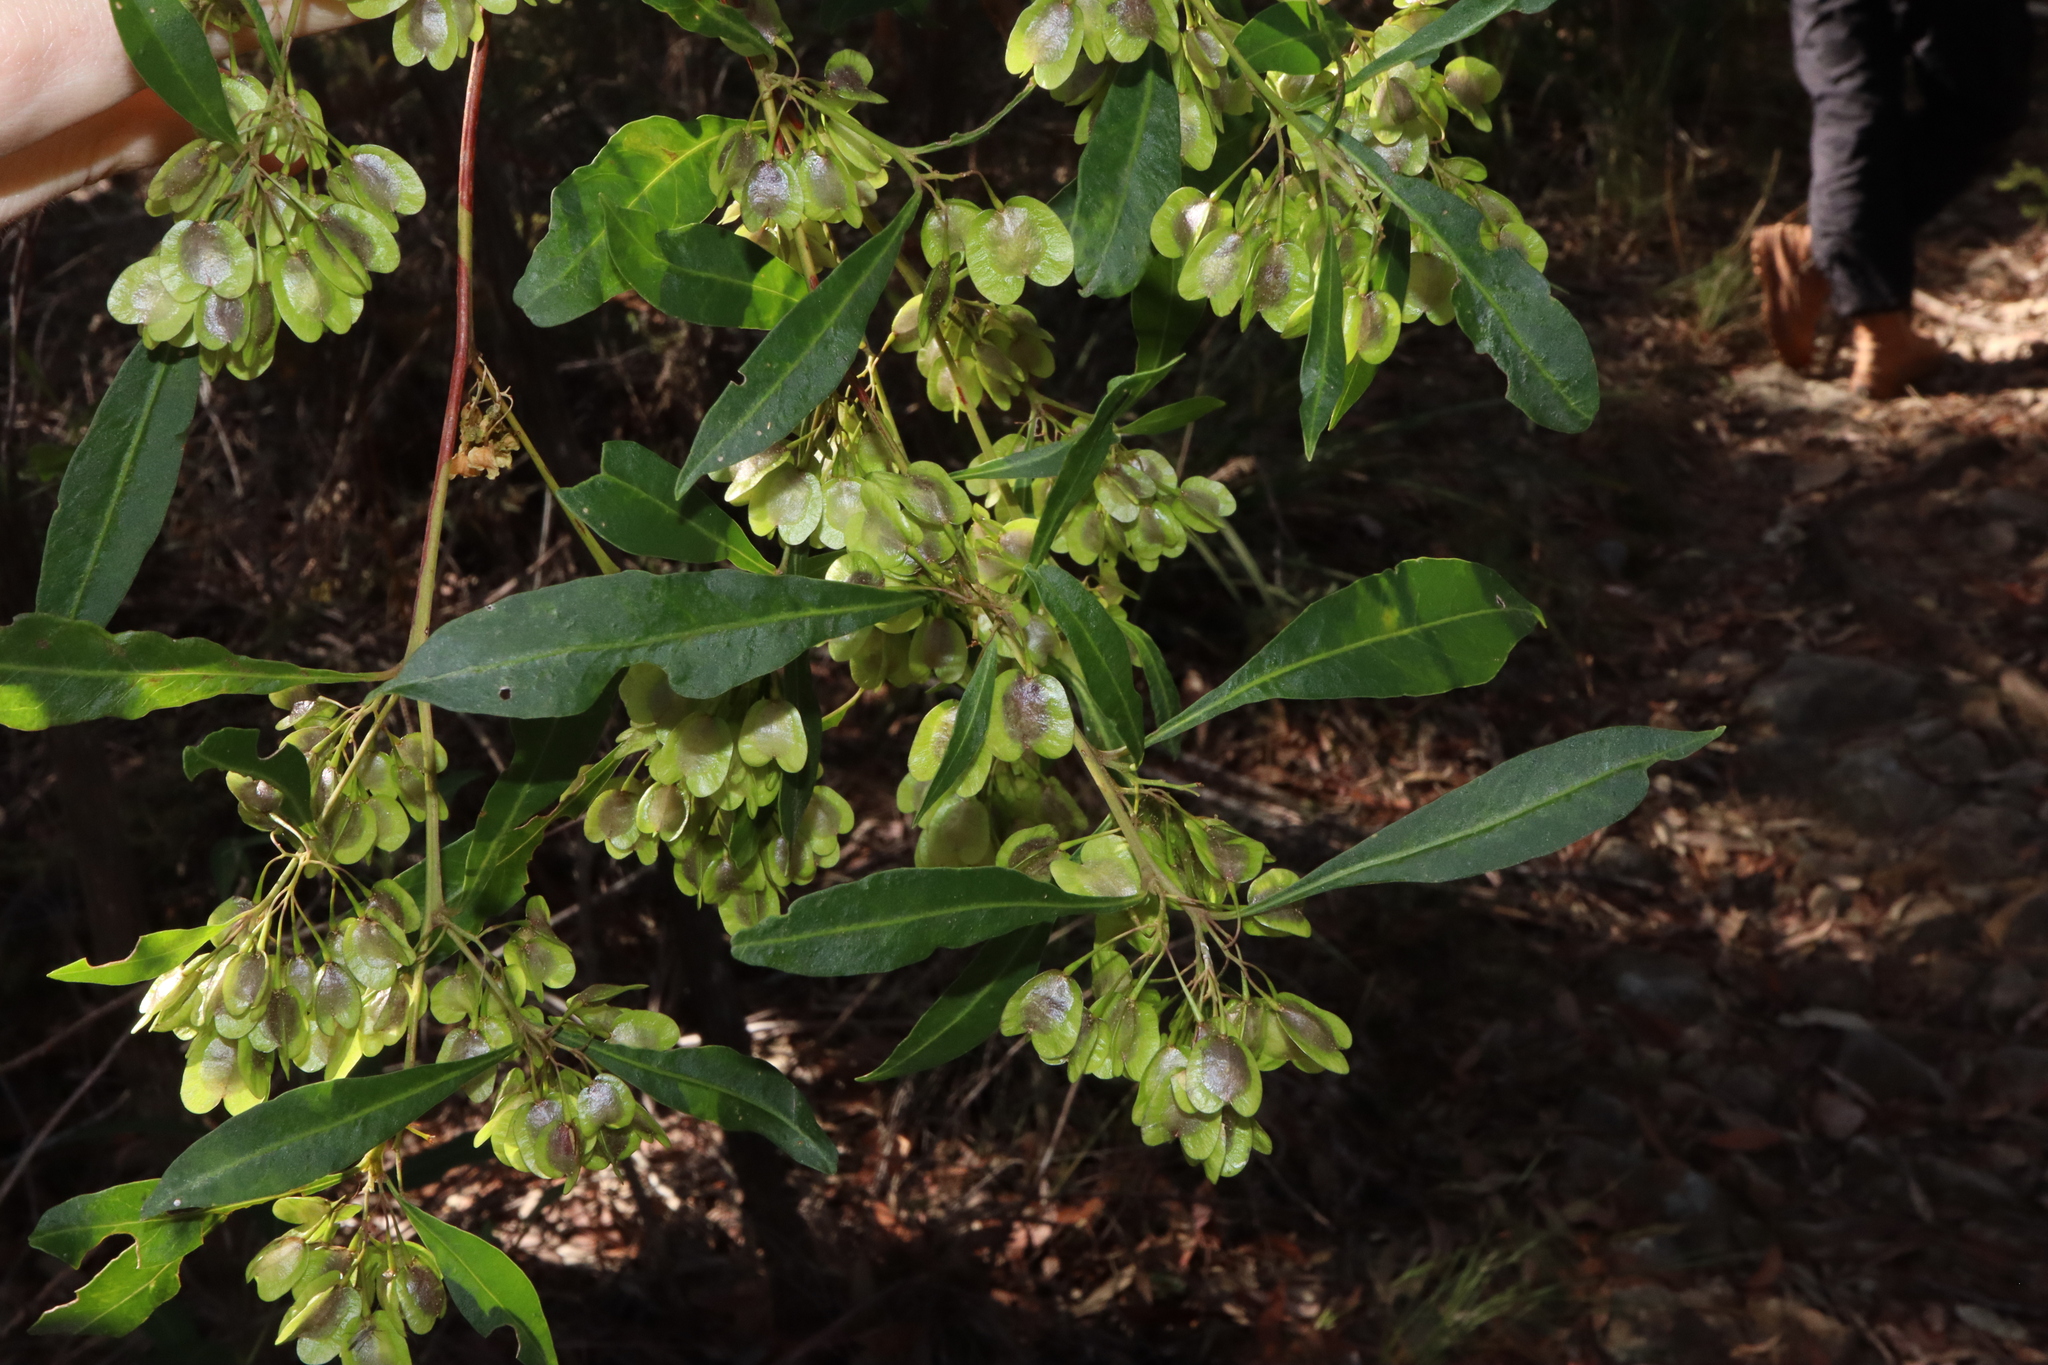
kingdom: Plantae
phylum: Tracheophyta
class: Magnoliopsida
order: Sapindales
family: Sapindaceae
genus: Dodonaea
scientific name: Dodonaea triquetra
